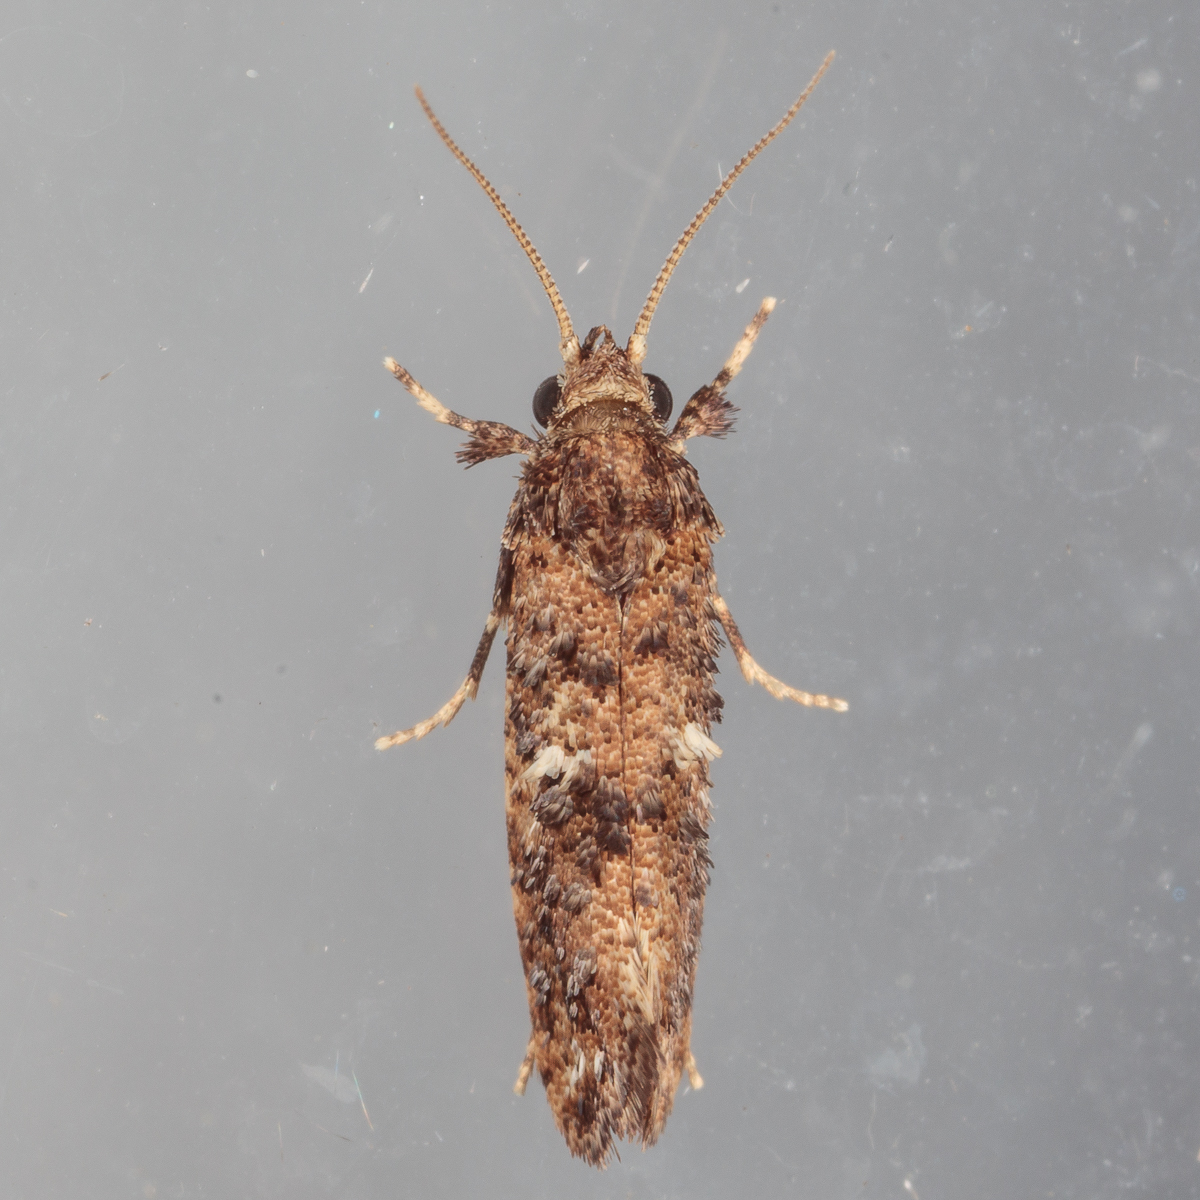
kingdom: Animalia
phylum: Arthropoda
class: Insecta
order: Lepidoptera
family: Tineidae
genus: Acrolophus
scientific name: Acrolophus cressoni
